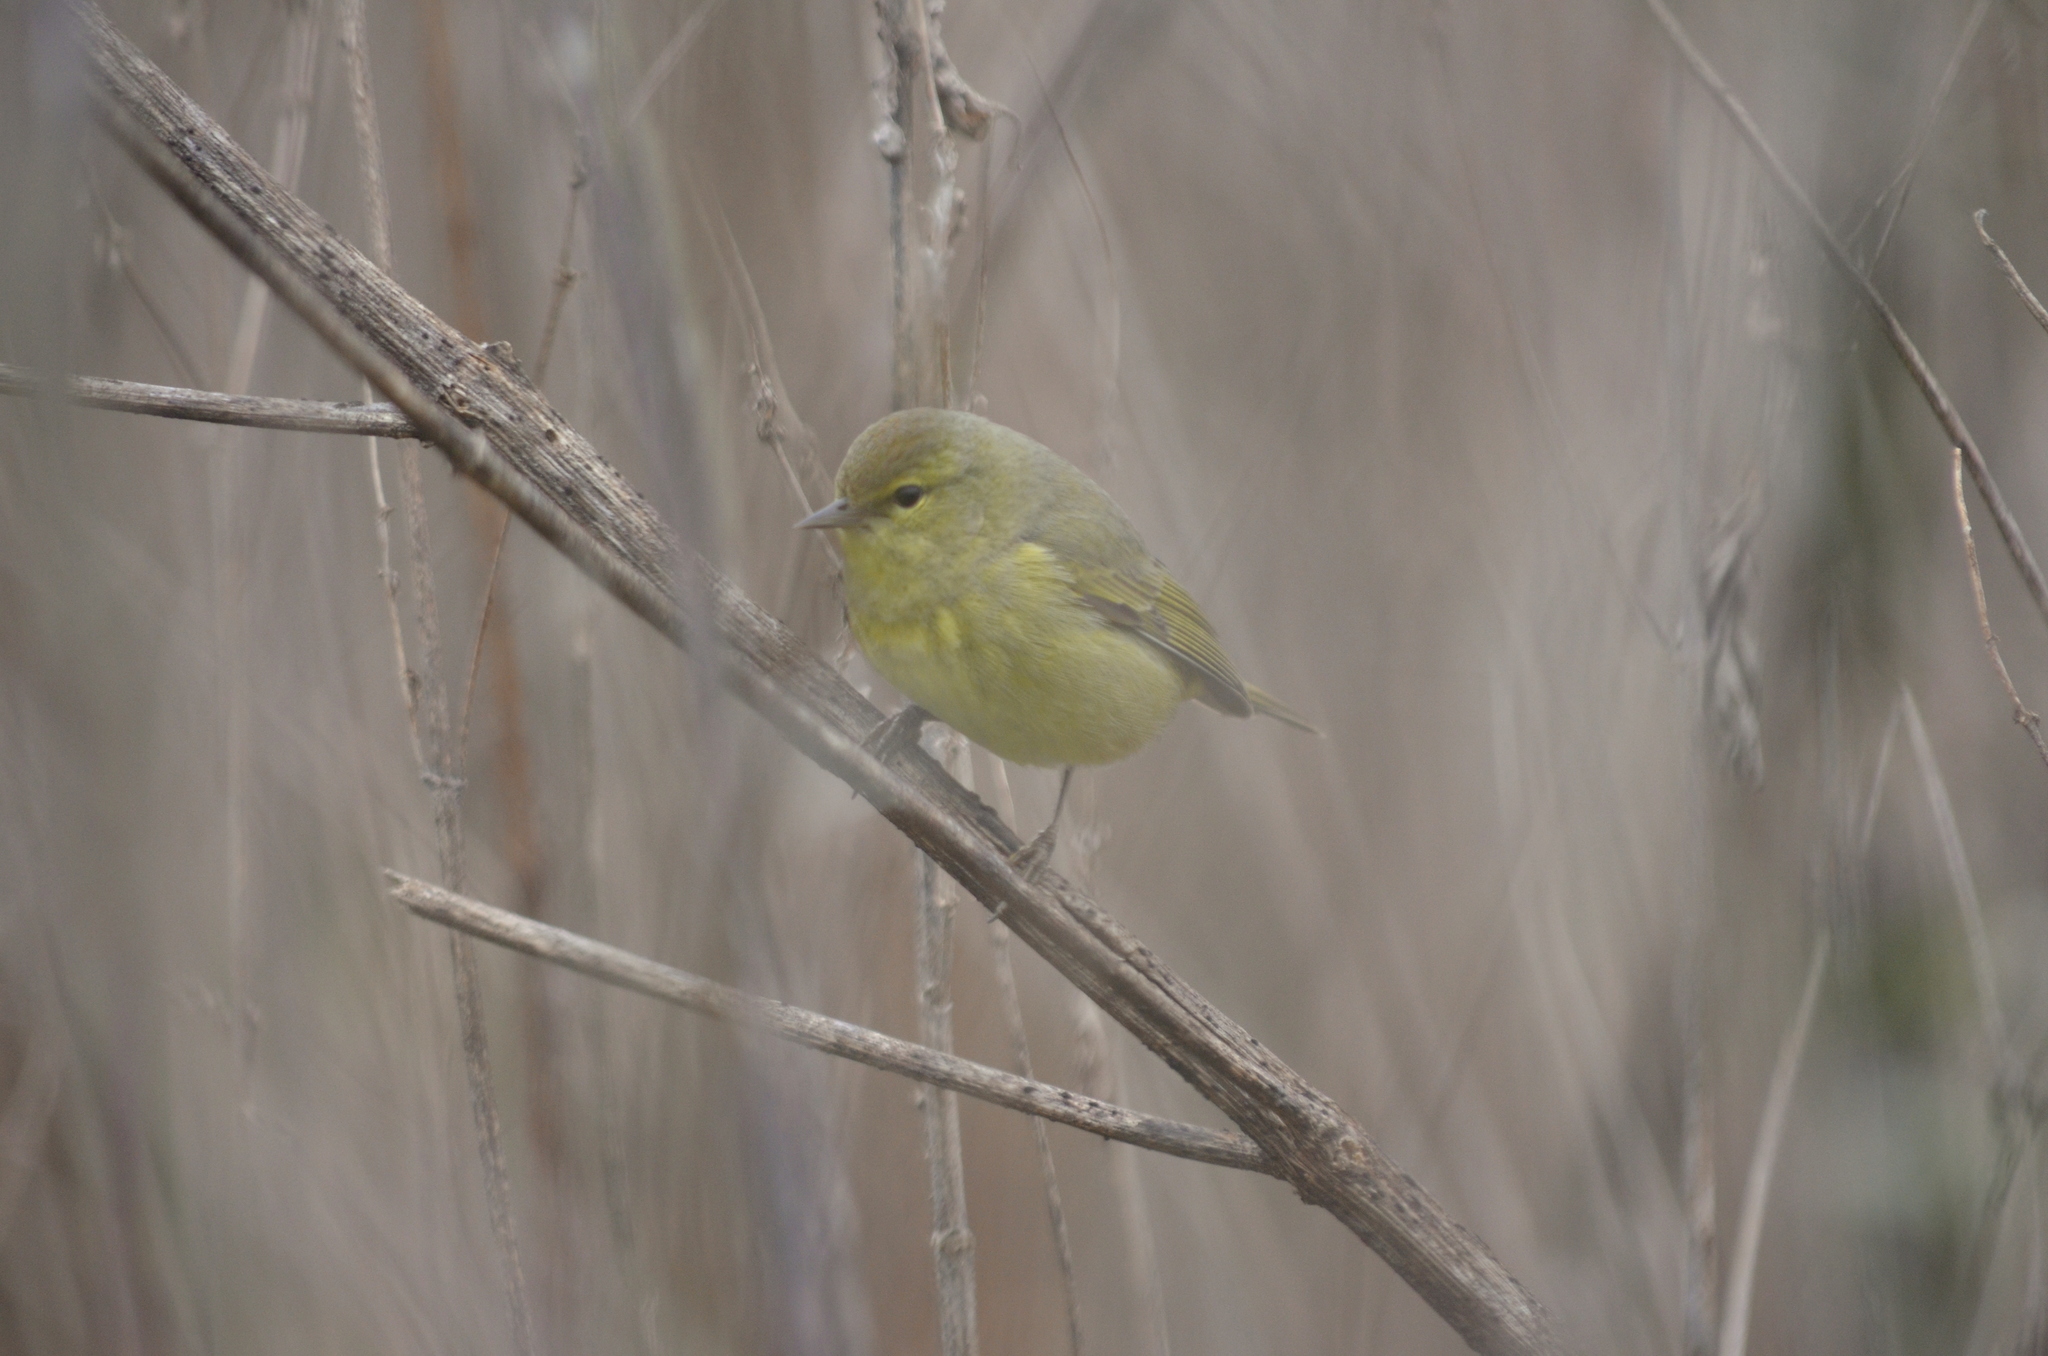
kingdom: Animalia
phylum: Chordata
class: Aves
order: Passeriformes
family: Parulidae
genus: Leiothlypis
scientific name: Leiothlypis celata
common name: Orange-crowned warbler
